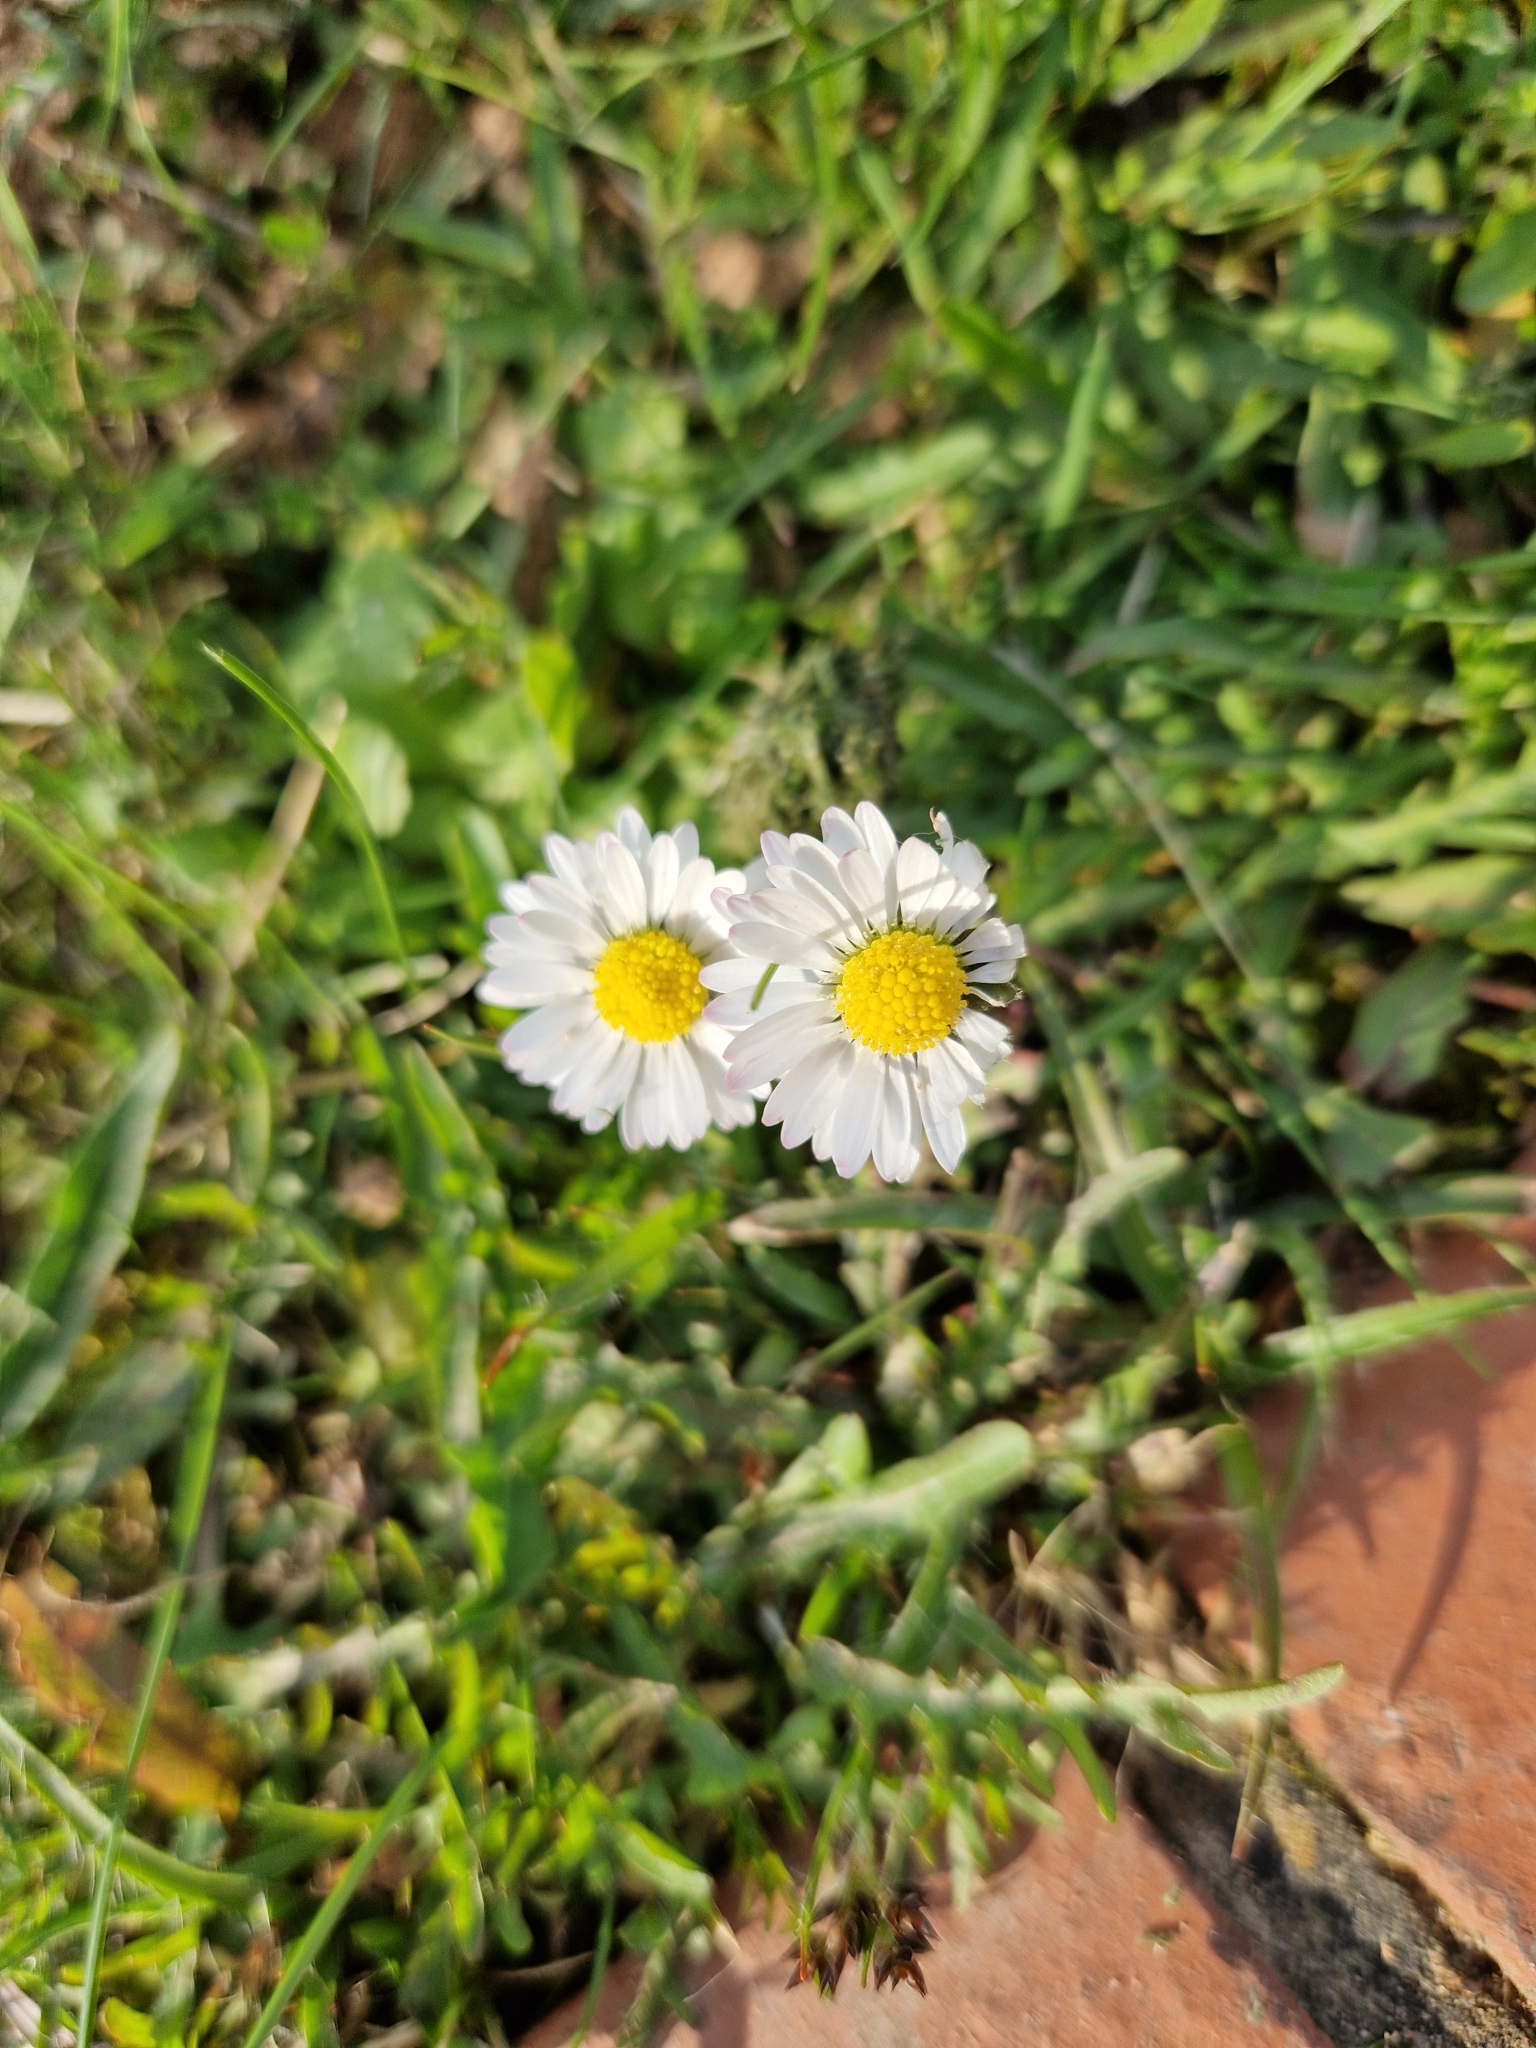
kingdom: Plantae
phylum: Tracheophyta
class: Magnoliopsida
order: Asterales
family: Asteraceae
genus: Bellis
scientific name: Bellis perennis
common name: Lawndaisy
